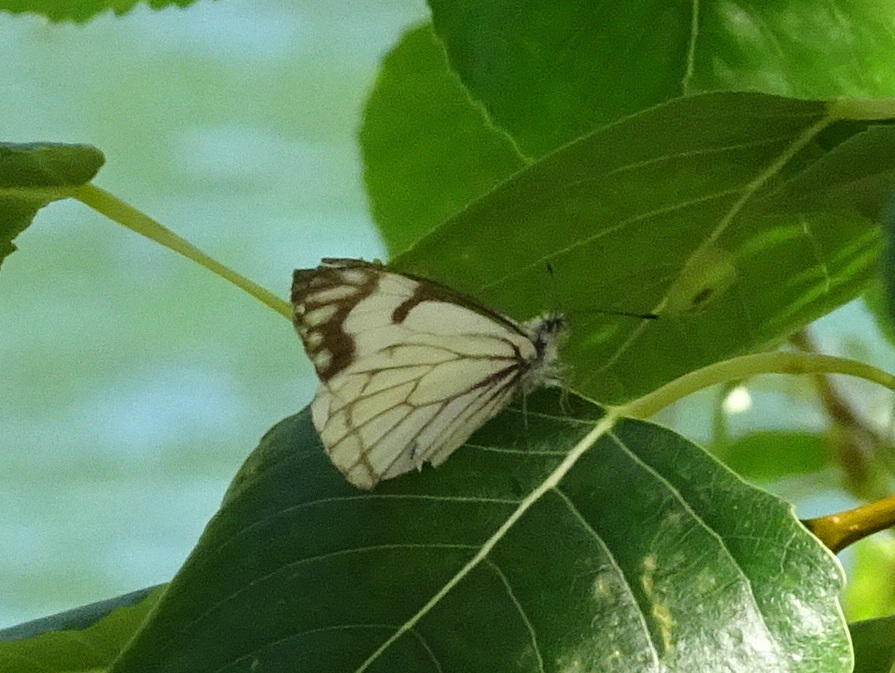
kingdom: Animalia
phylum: Arthropoda
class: Insecta
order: Lepidoptera
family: Pieridae
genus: Neophasia
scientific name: Neophasia menapia
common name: Pine white
